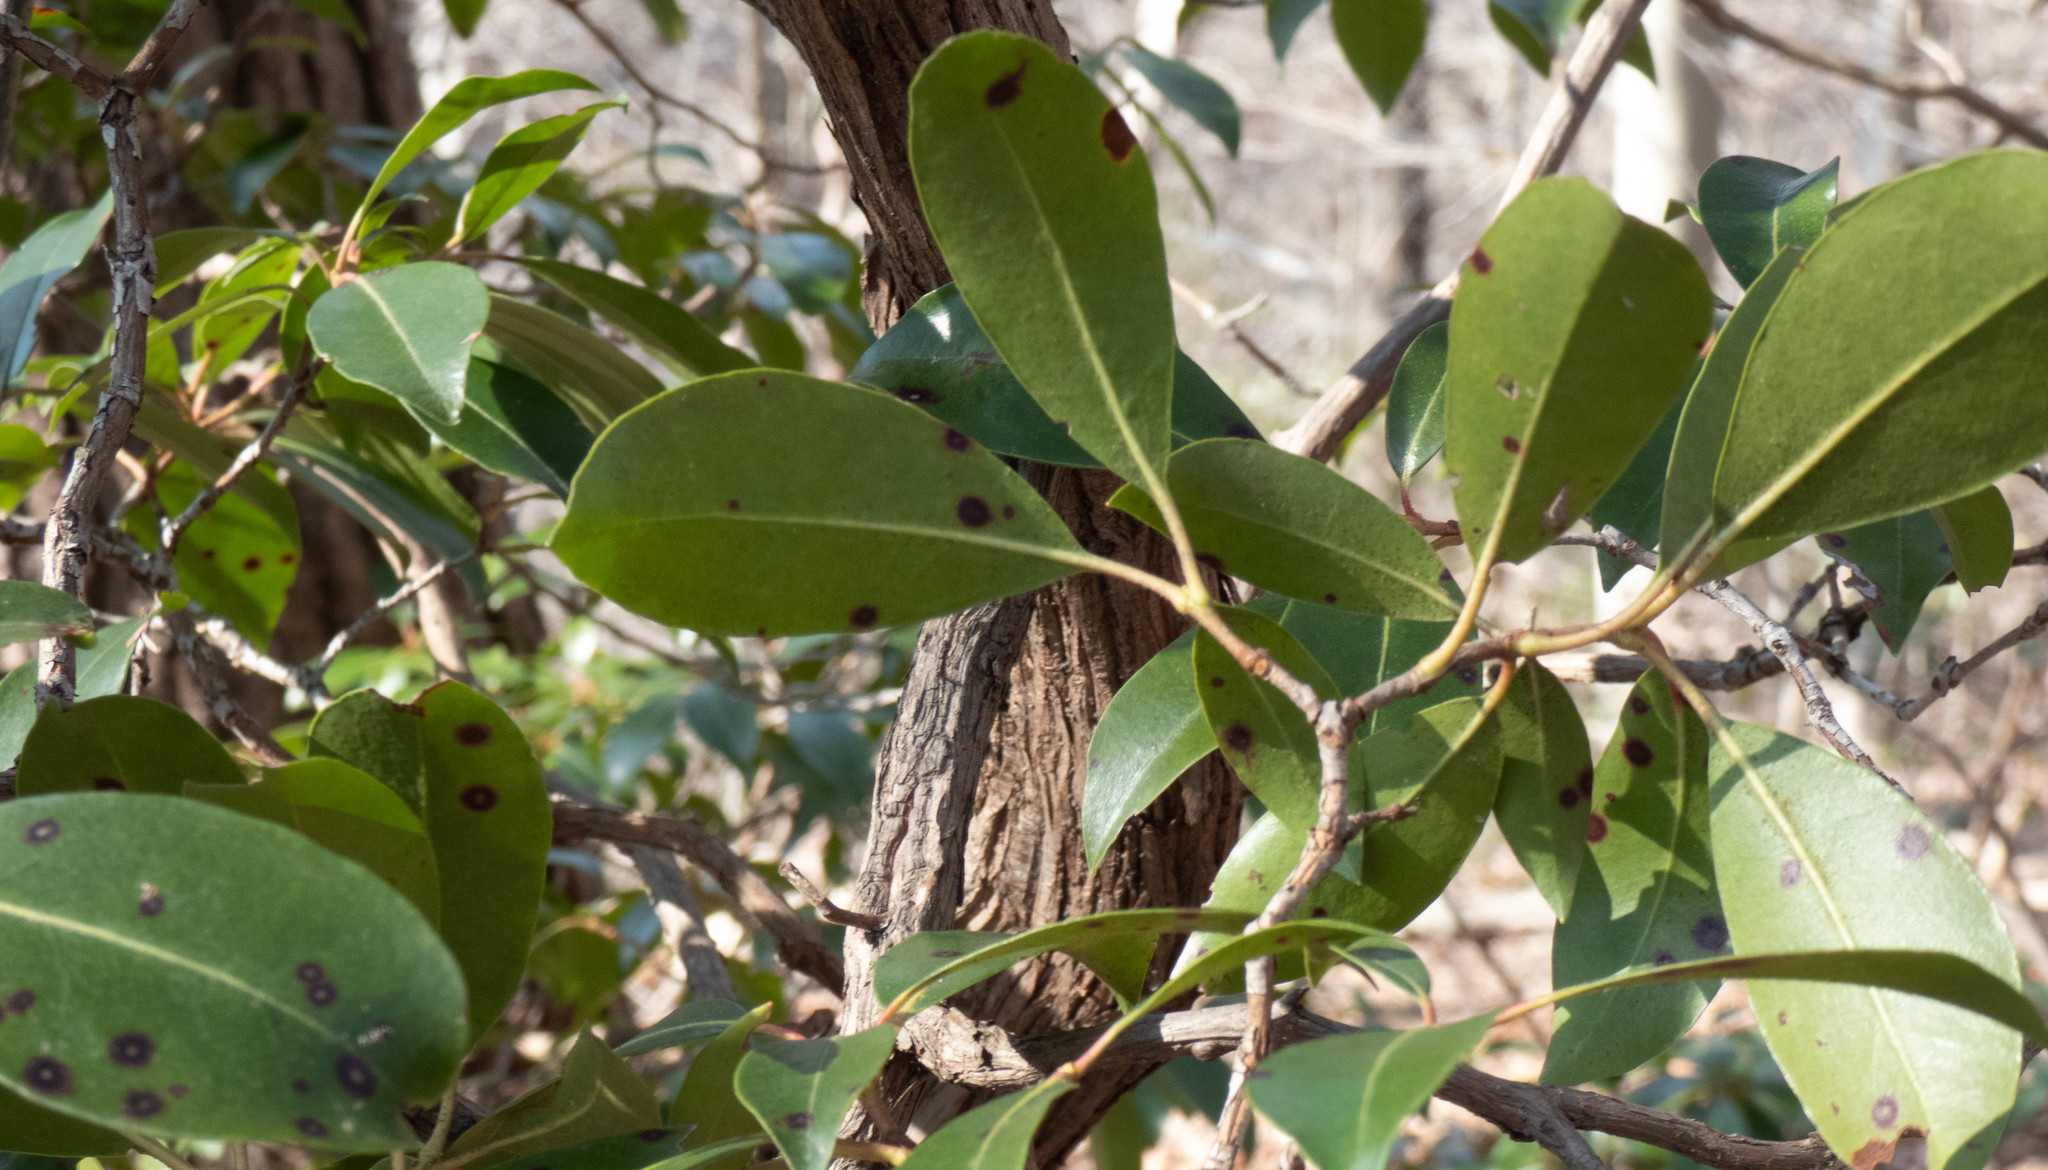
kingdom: Plantae
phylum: Tracheophyta
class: Magnoliopsida
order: Ericales
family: Ericaceae
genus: Kalmia
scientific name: Kalmia latifolia
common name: Mountain-laurel
